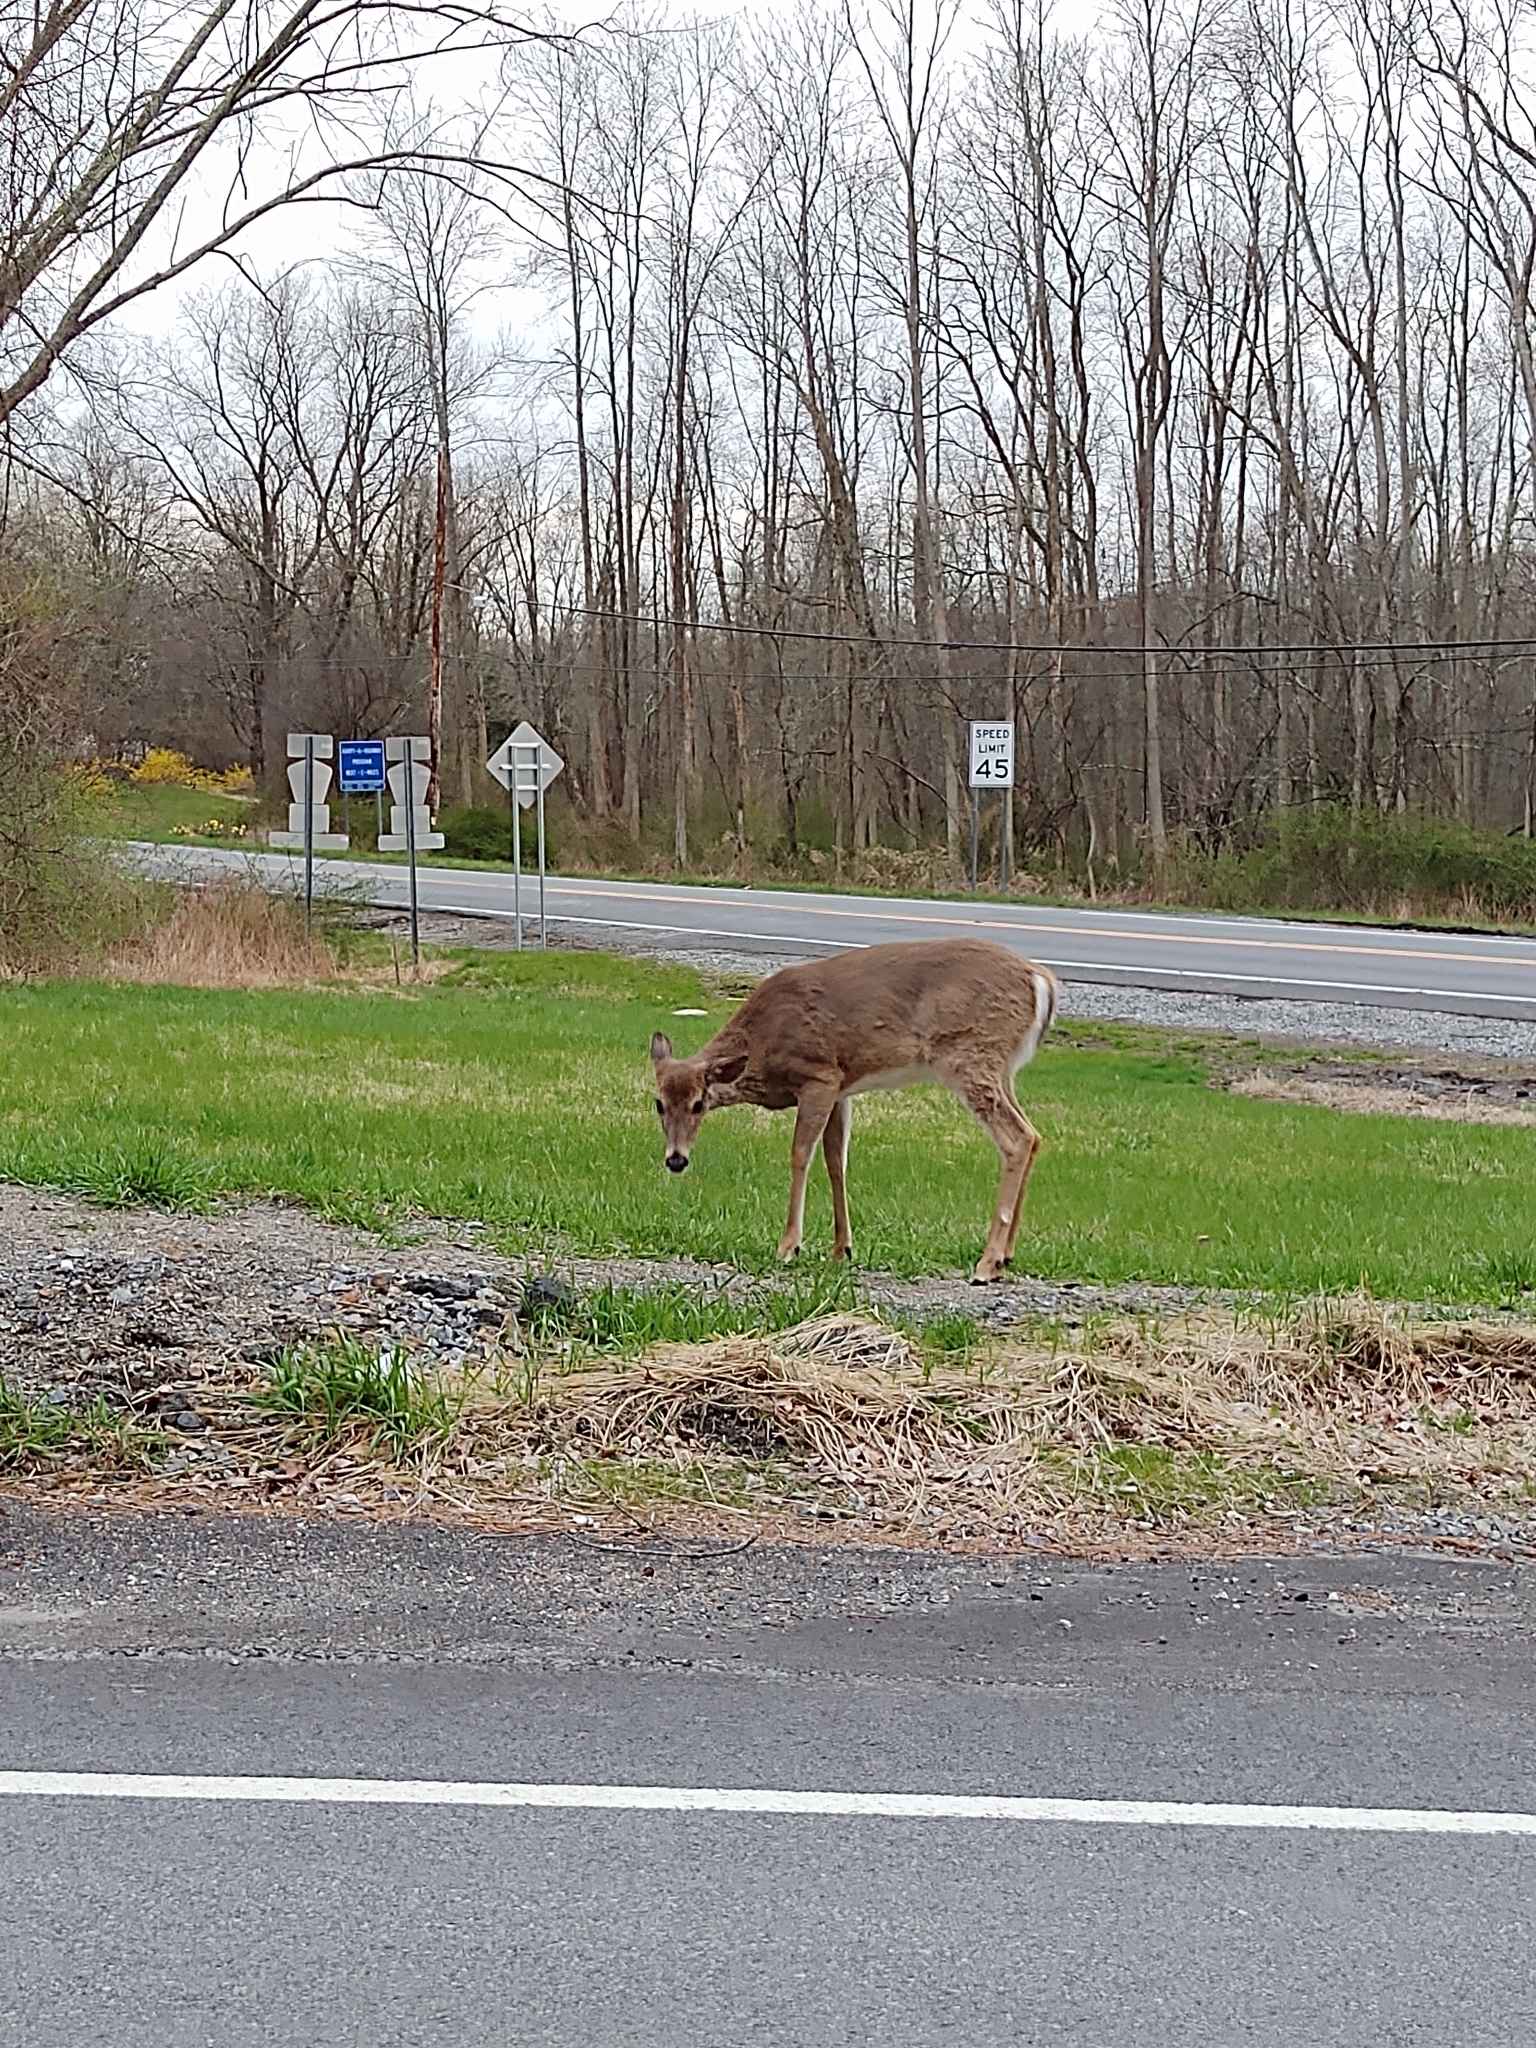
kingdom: Animalia
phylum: Chordata
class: Mammalia
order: Artiodactyla
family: Cervidae
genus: Odocoileus
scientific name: Odocoileus virginianus
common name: White-tailed deer
